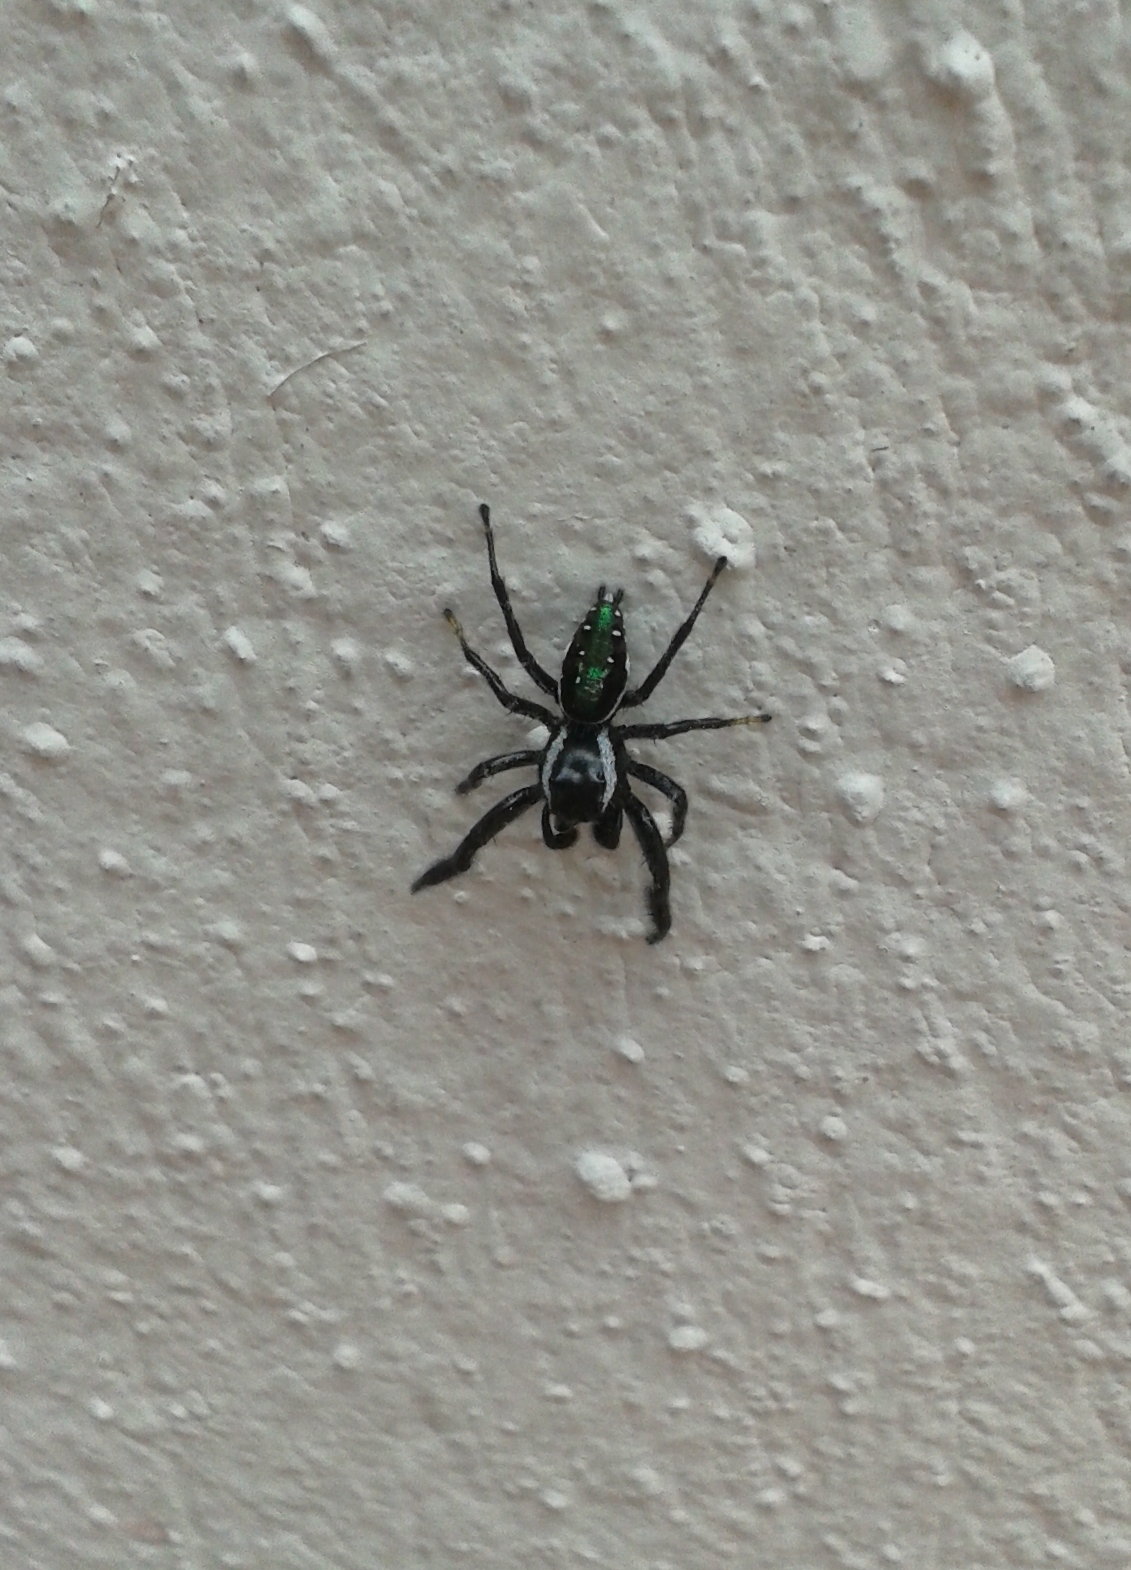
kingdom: Animalia
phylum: Arthropoda
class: Arachnida
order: Araneae
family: Salticidae
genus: Paraphidippus
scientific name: Paraphidippus aurantius
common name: Jumping spiders
